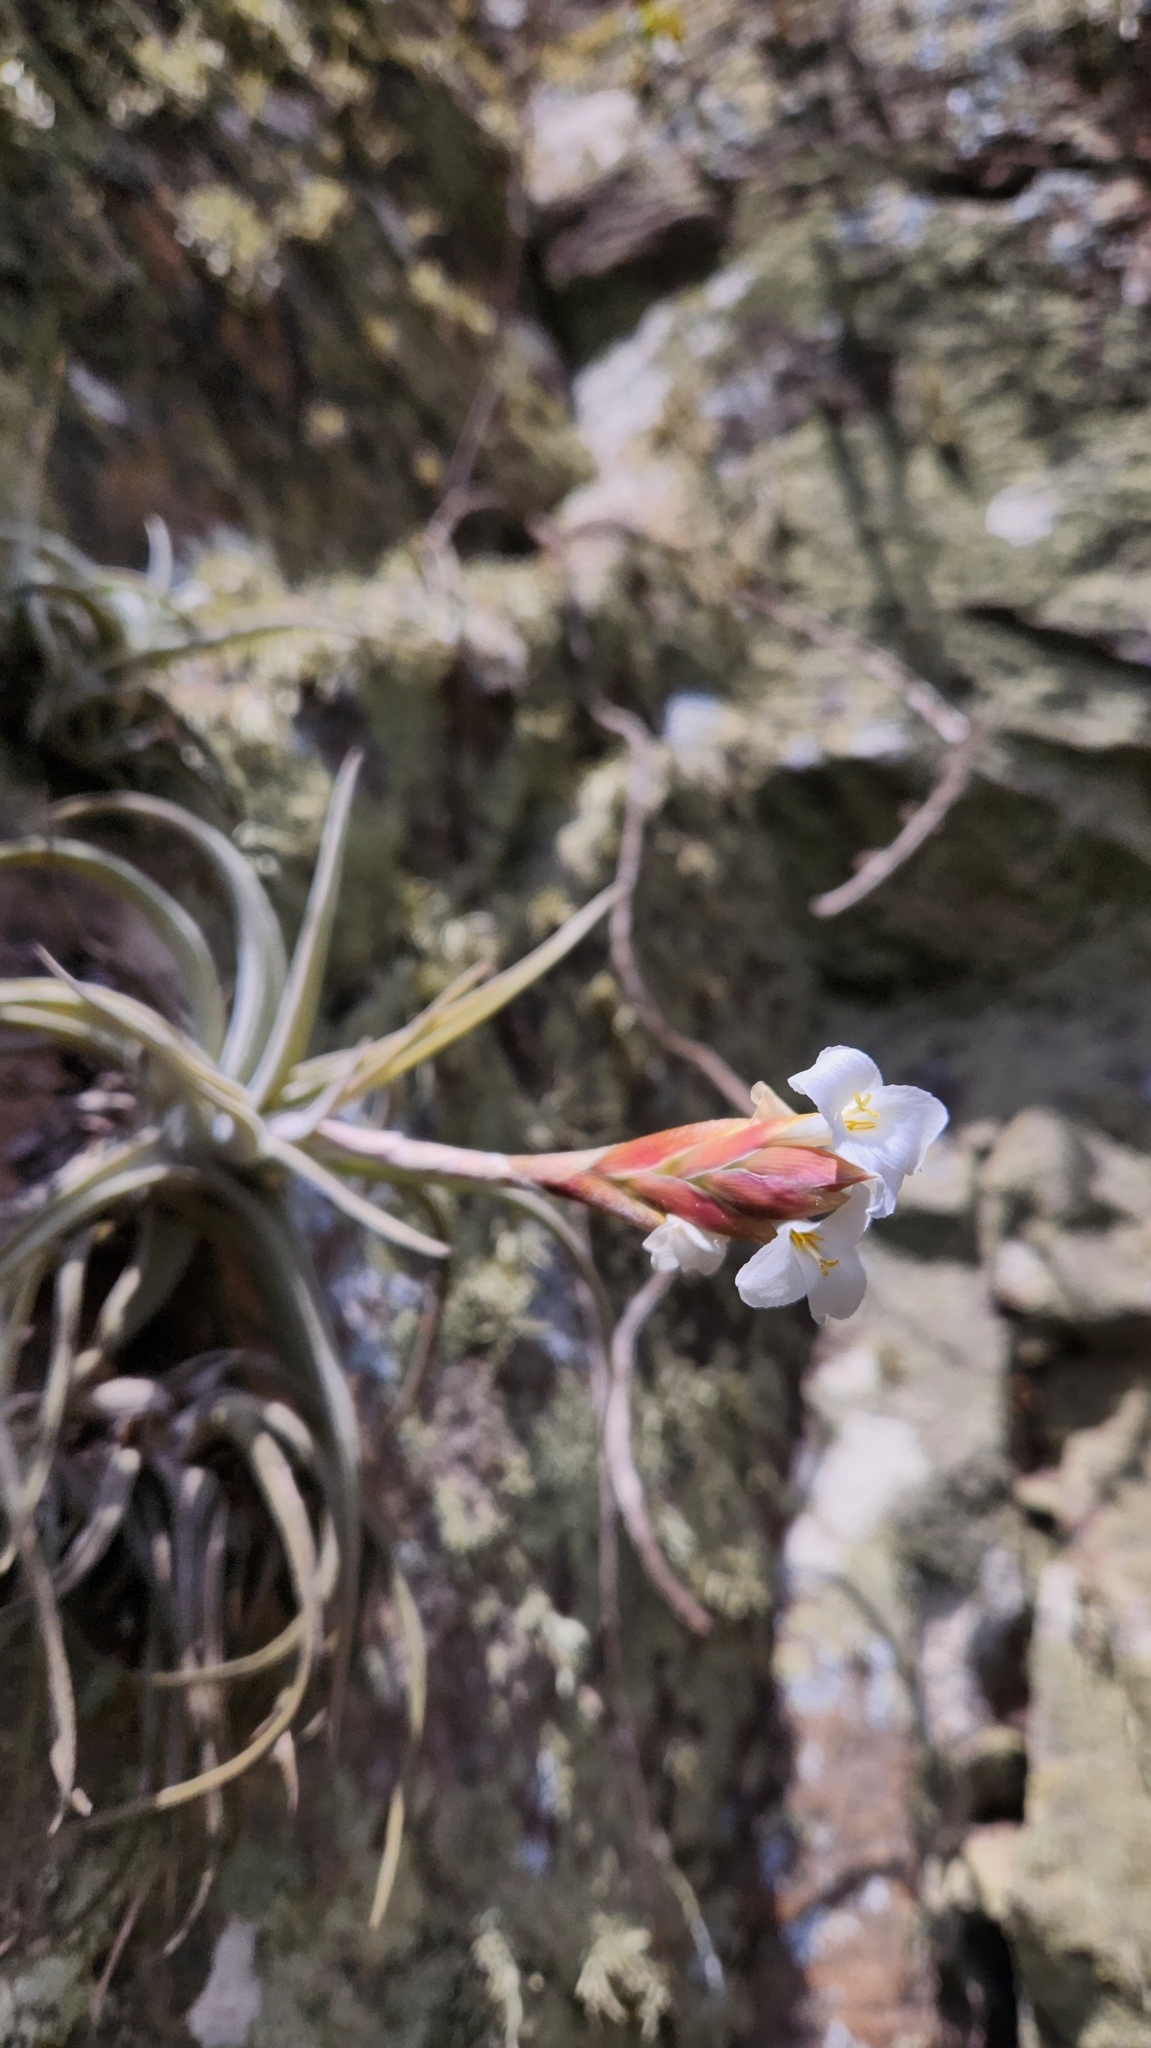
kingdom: Plantae
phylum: Tracheophyta
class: Liliopsida
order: Poales
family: Bromeliaceae
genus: Tillandsia
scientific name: Tillandsia uruguayensis
